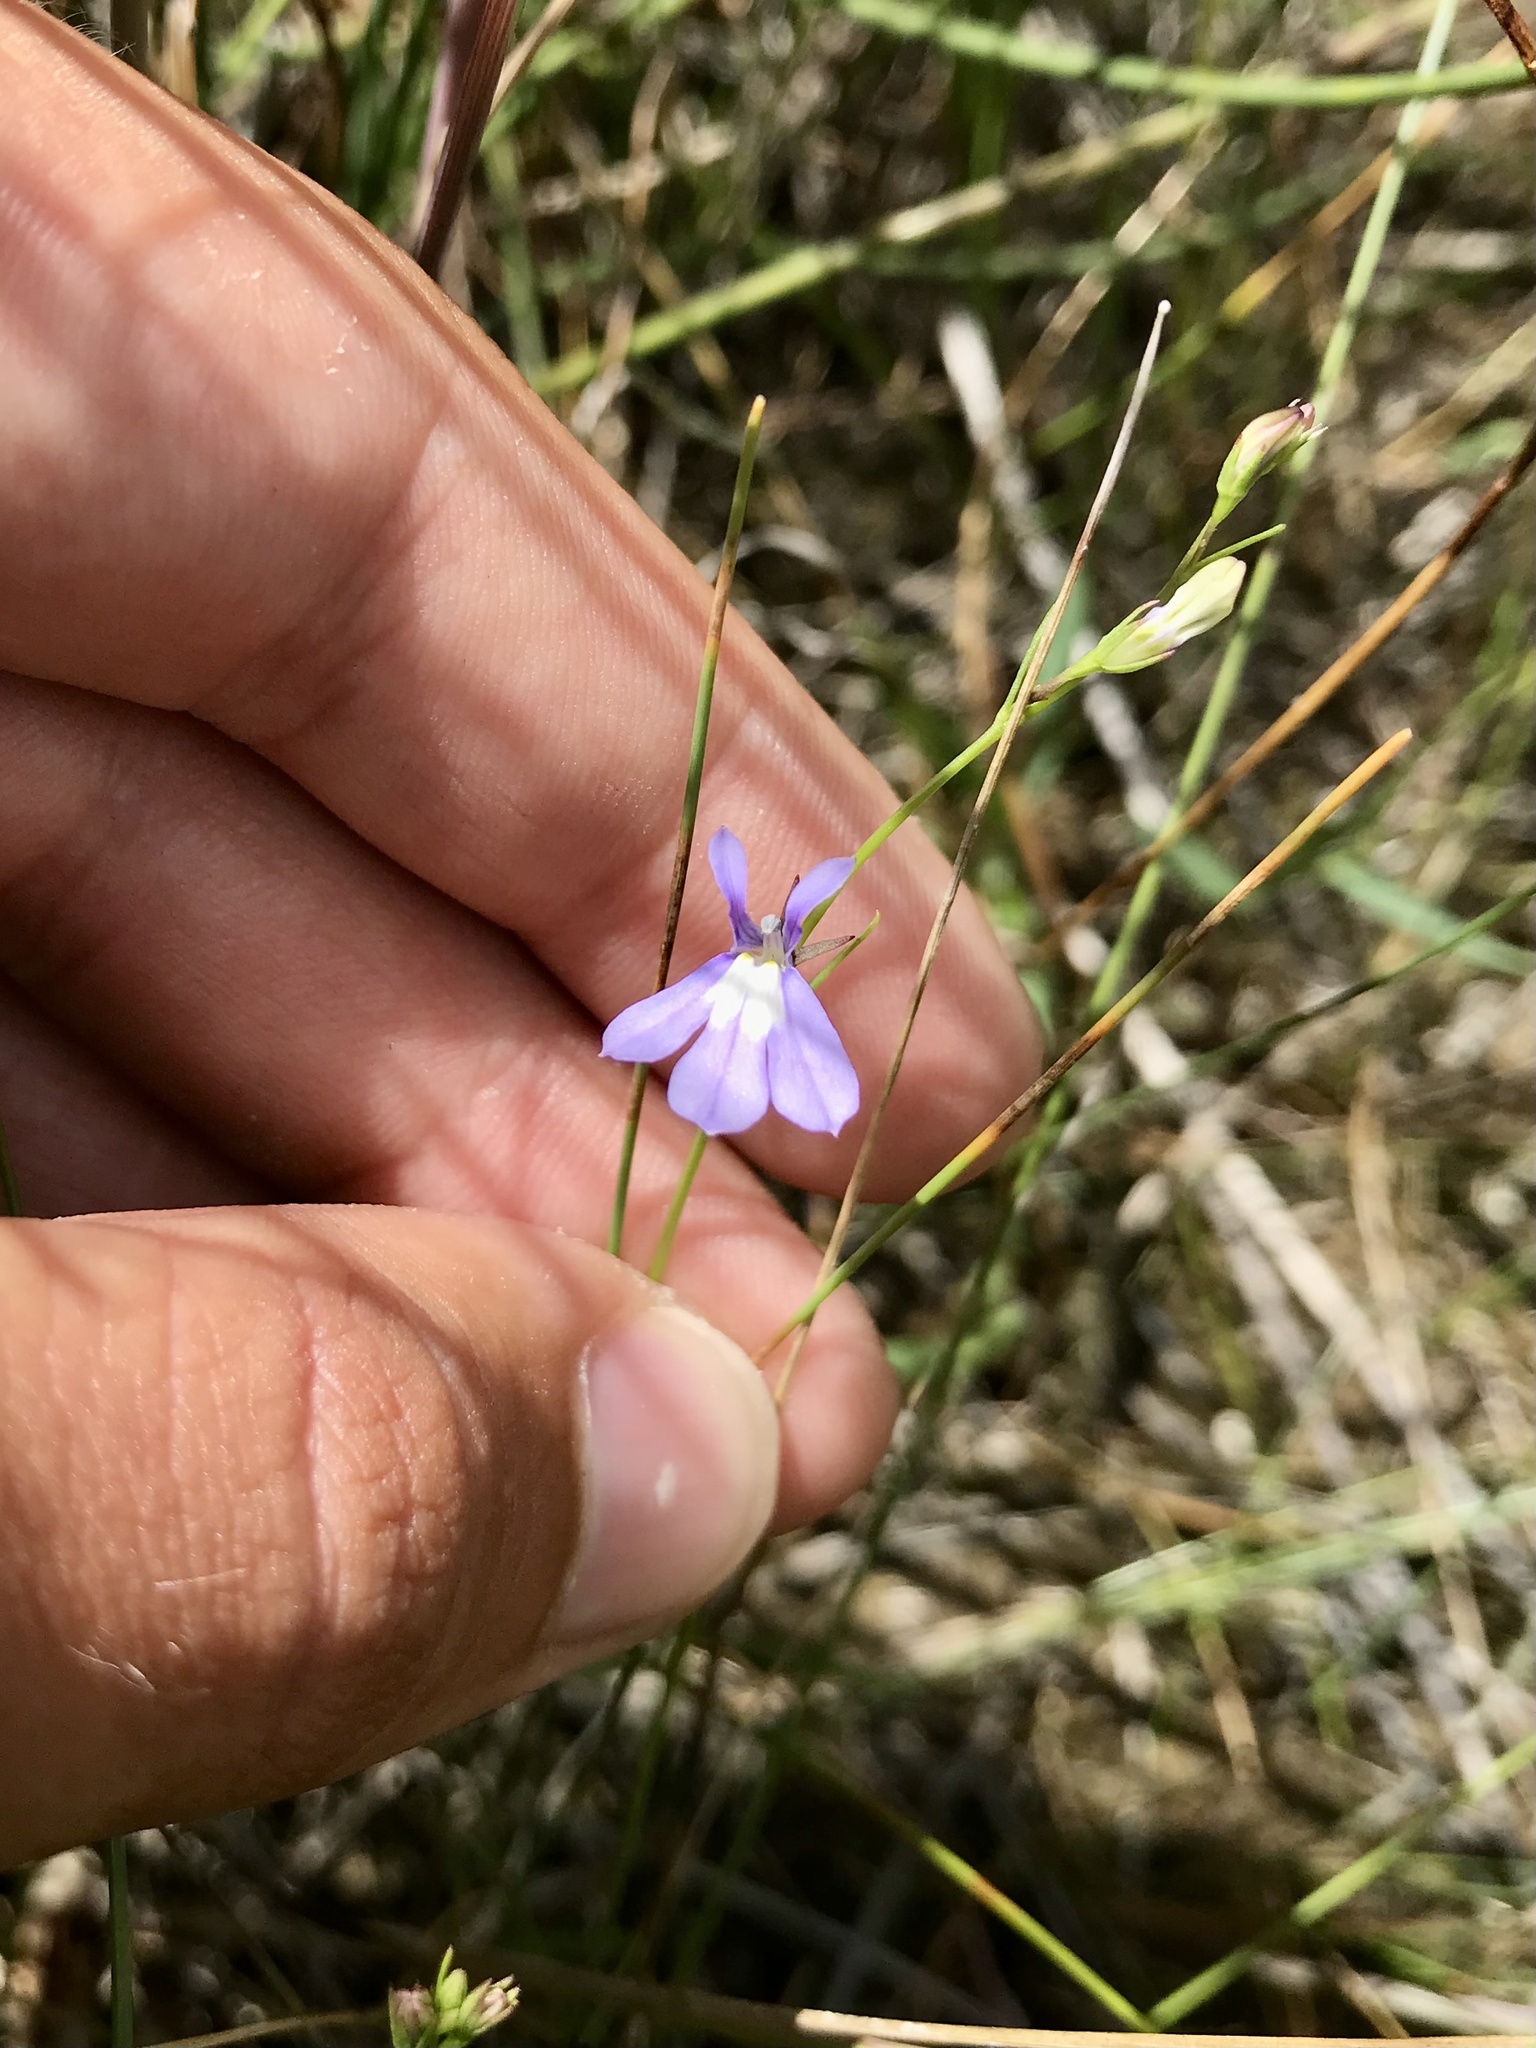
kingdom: Plantae
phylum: Tracheophyta
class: Magnoliopsida
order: Asterales
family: Campanulaceae
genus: Lobelia
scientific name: Lobelia kalmii
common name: Kalm's lobelia
